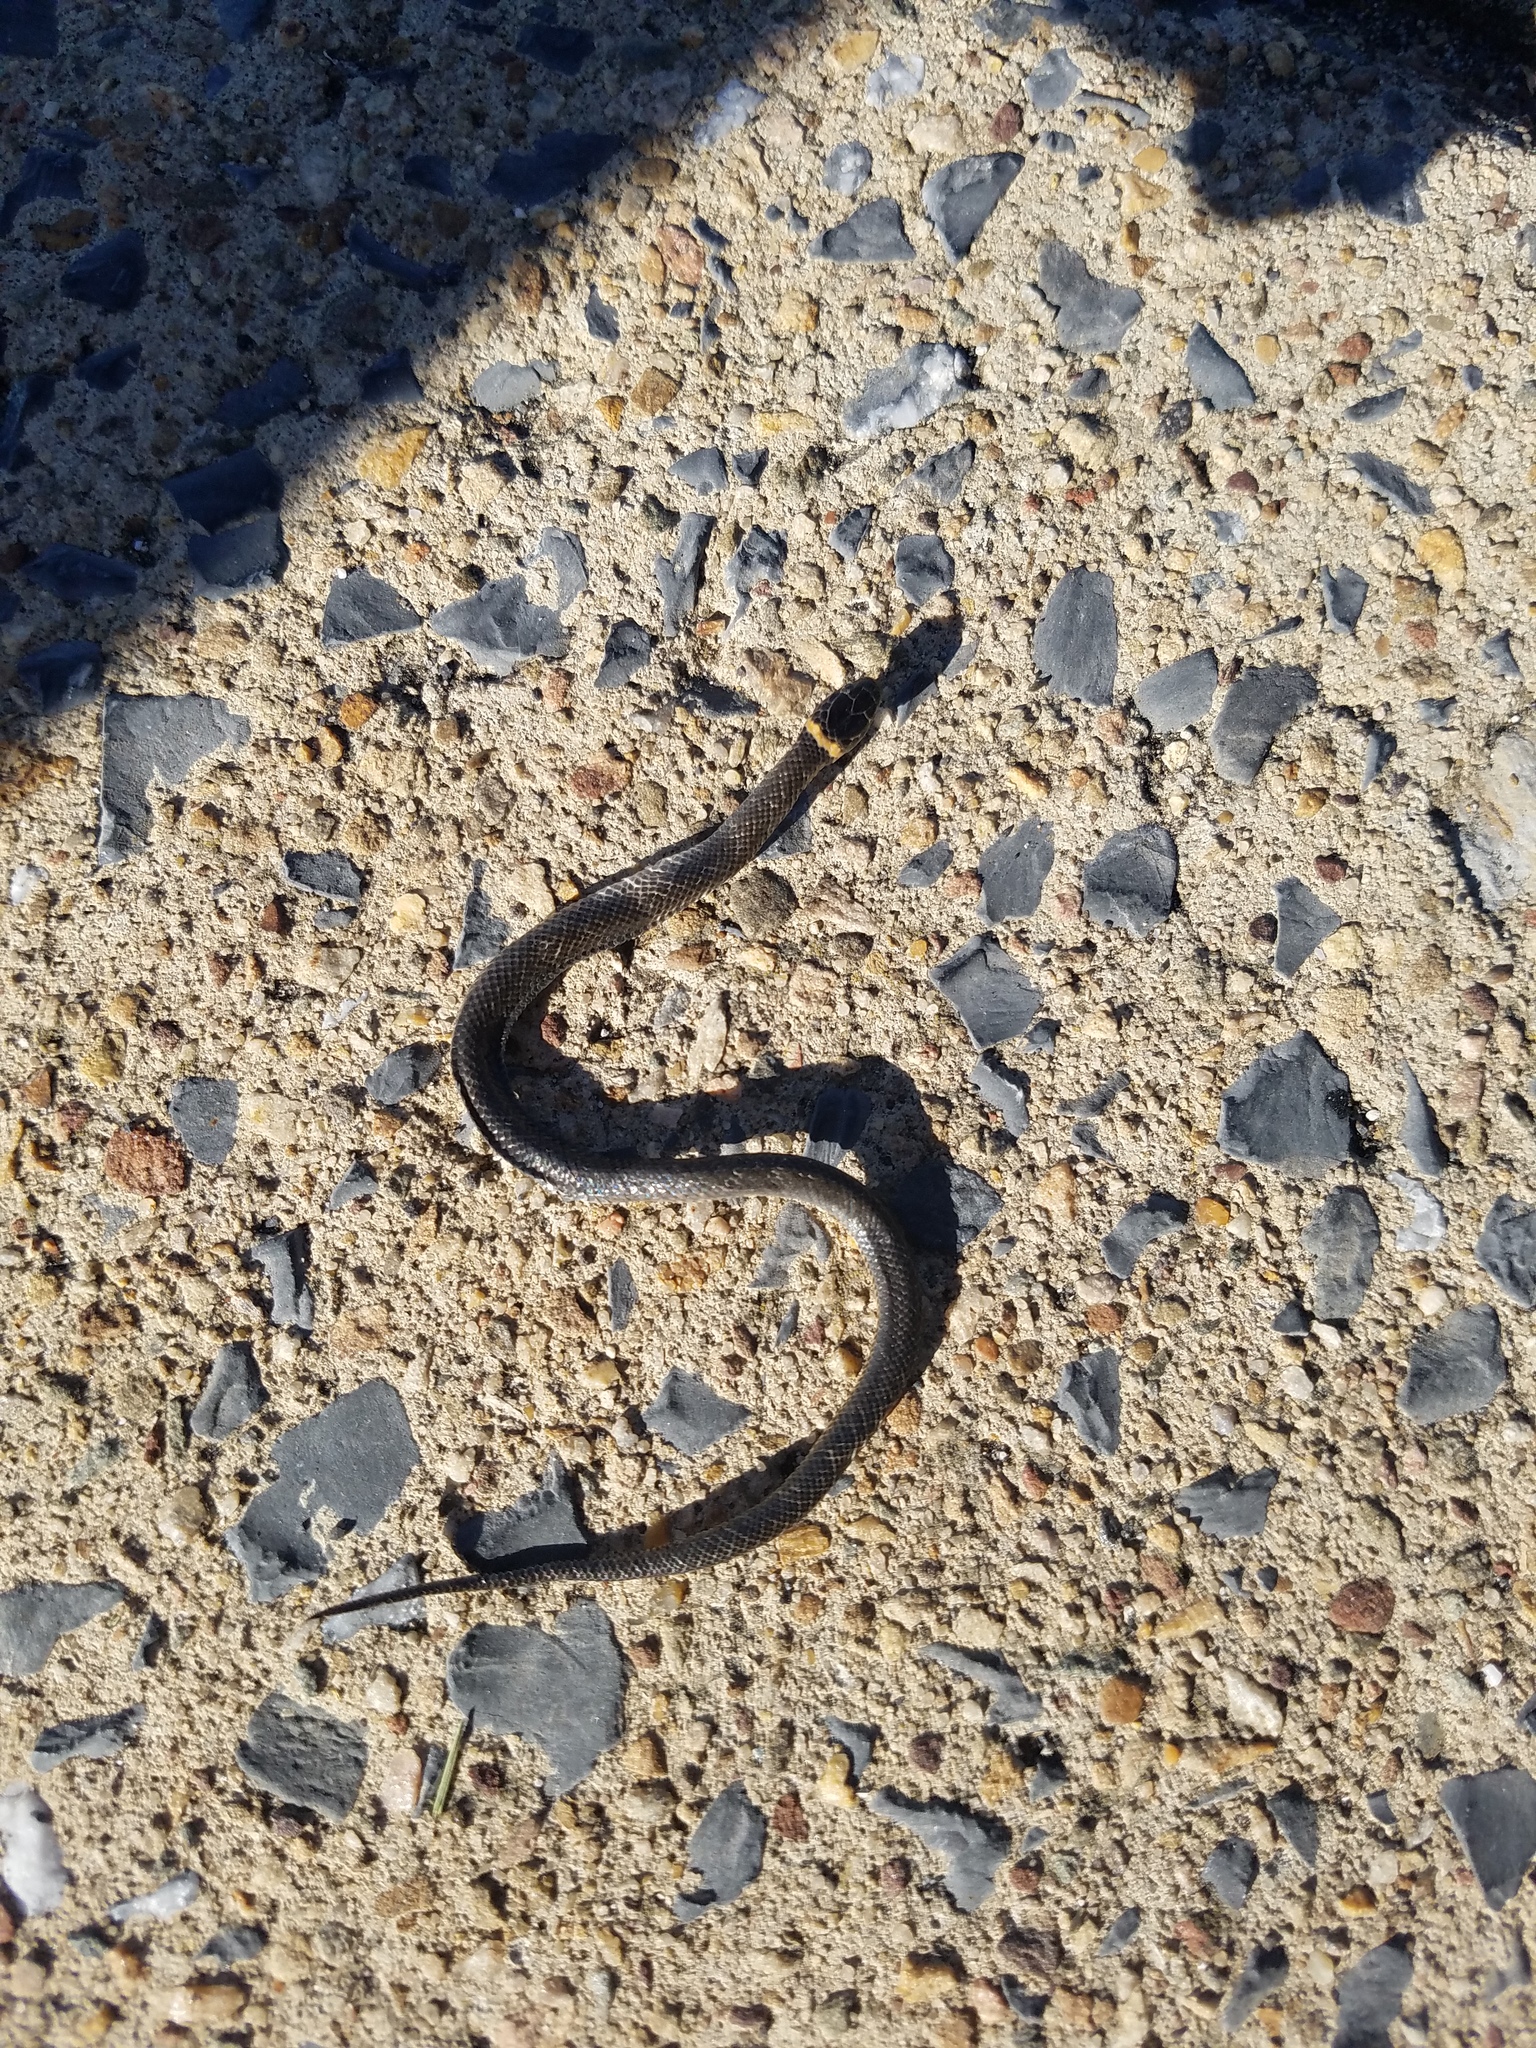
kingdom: Animalia
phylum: Chordata
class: Squamata
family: Colubridae
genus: Diadophis
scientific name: Diadophis punctatus
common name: Ringneck snake
